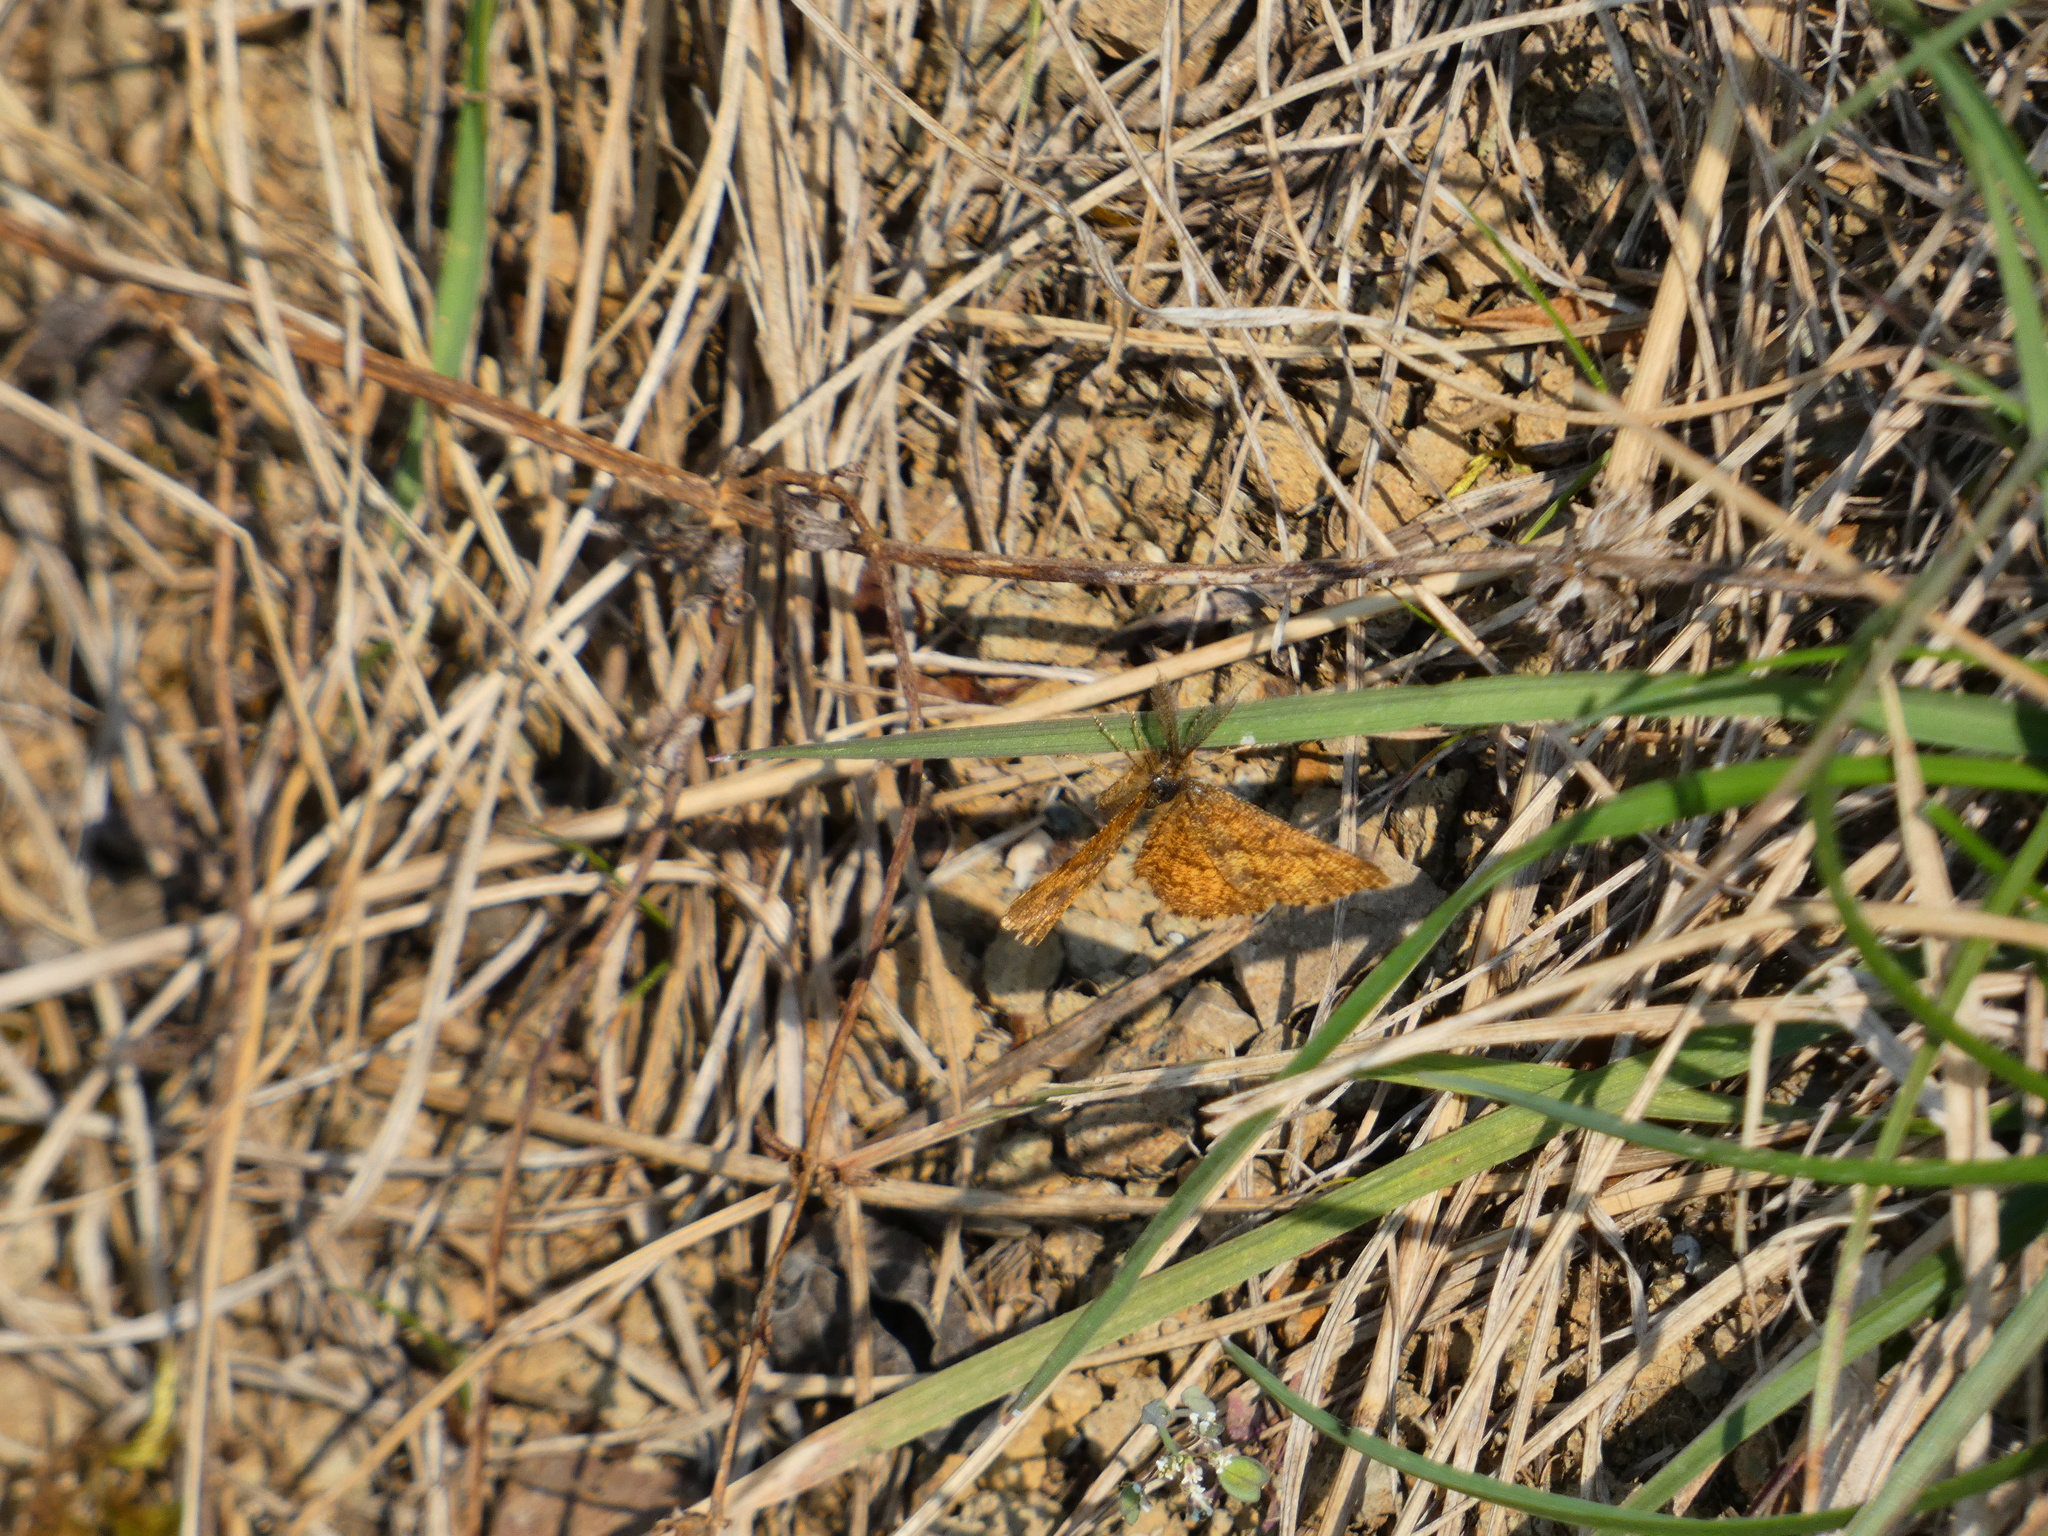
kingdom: Animalia
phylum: Arthropoda
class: Insecta
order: Lepidoptera
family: Geometridae
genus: Ematurga
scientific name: Ematurga atomaria
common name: Common heath
